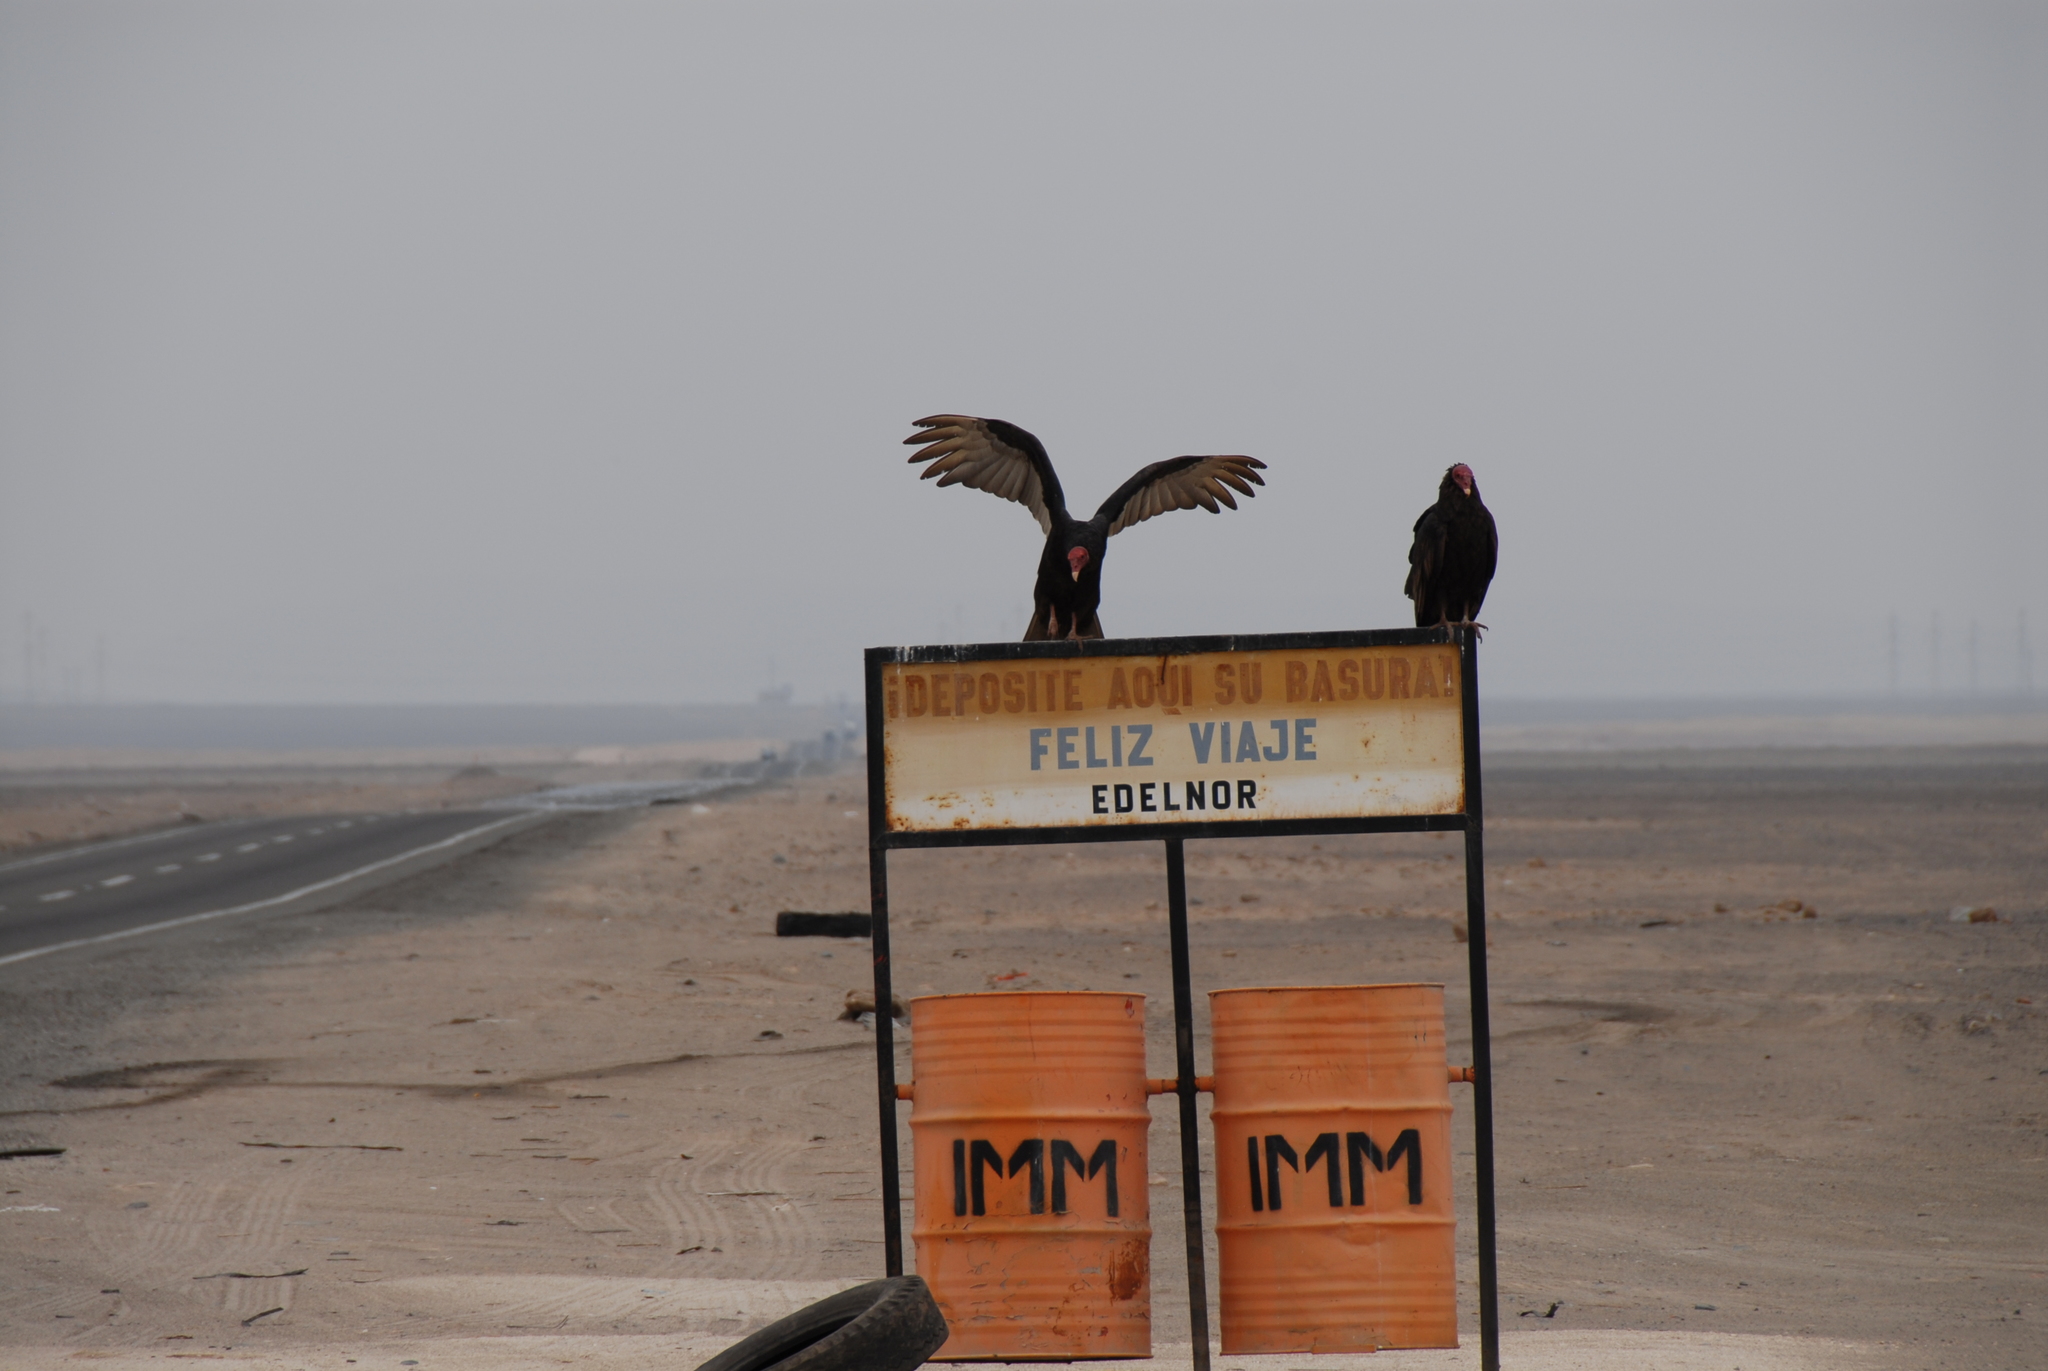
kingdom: Animalia
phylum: Chordata
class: Aves
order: Accipitriformes
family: Cathartidae
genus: Cathartes
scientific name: Cathartes aura
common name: Turkey vulture
